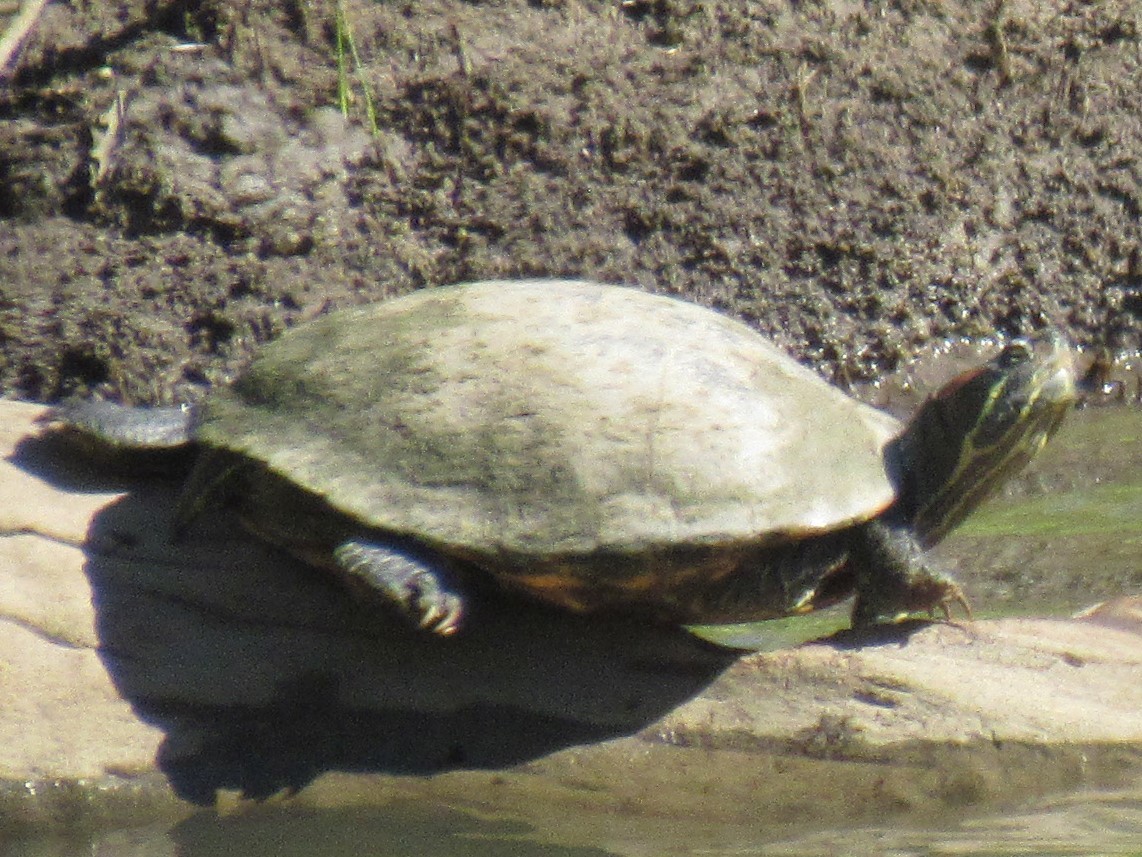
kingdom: Animalia
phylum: Chordata
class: Testudines
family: Emydidae
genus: Trachemys
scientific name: Trachemys scripta
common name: Slider
